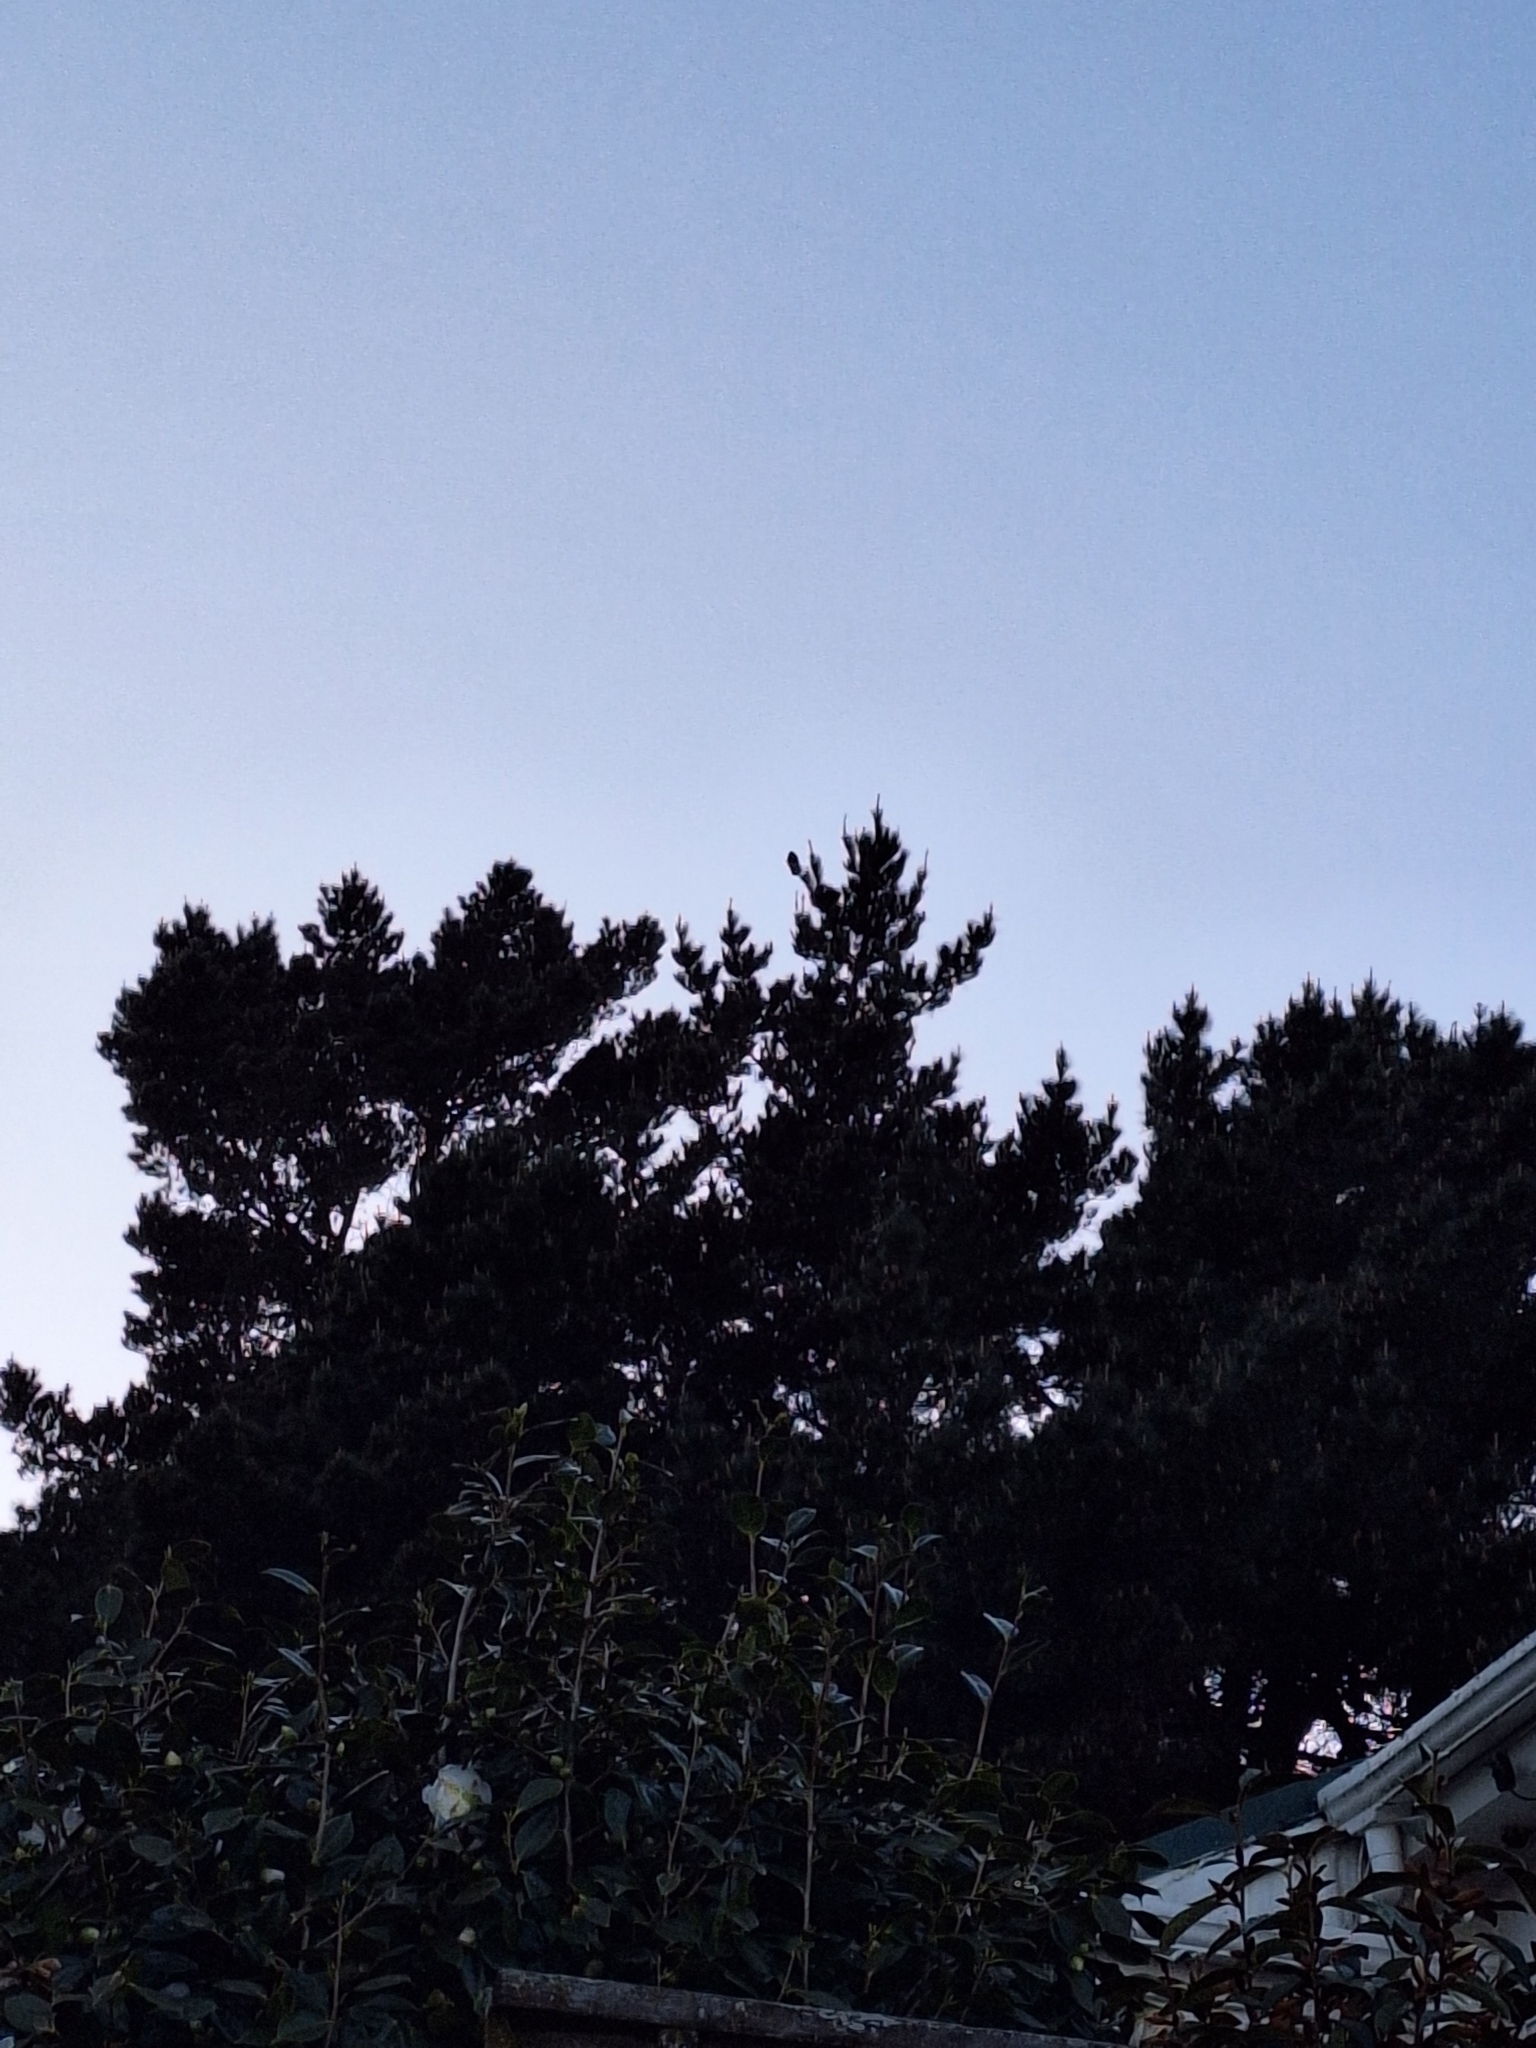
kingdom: Animalia
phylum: Chordata
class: Aves
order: Psittaciformes
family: Psittacidae
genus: Nestor
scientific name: Nestor meridionalis
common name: New zealand kaka
